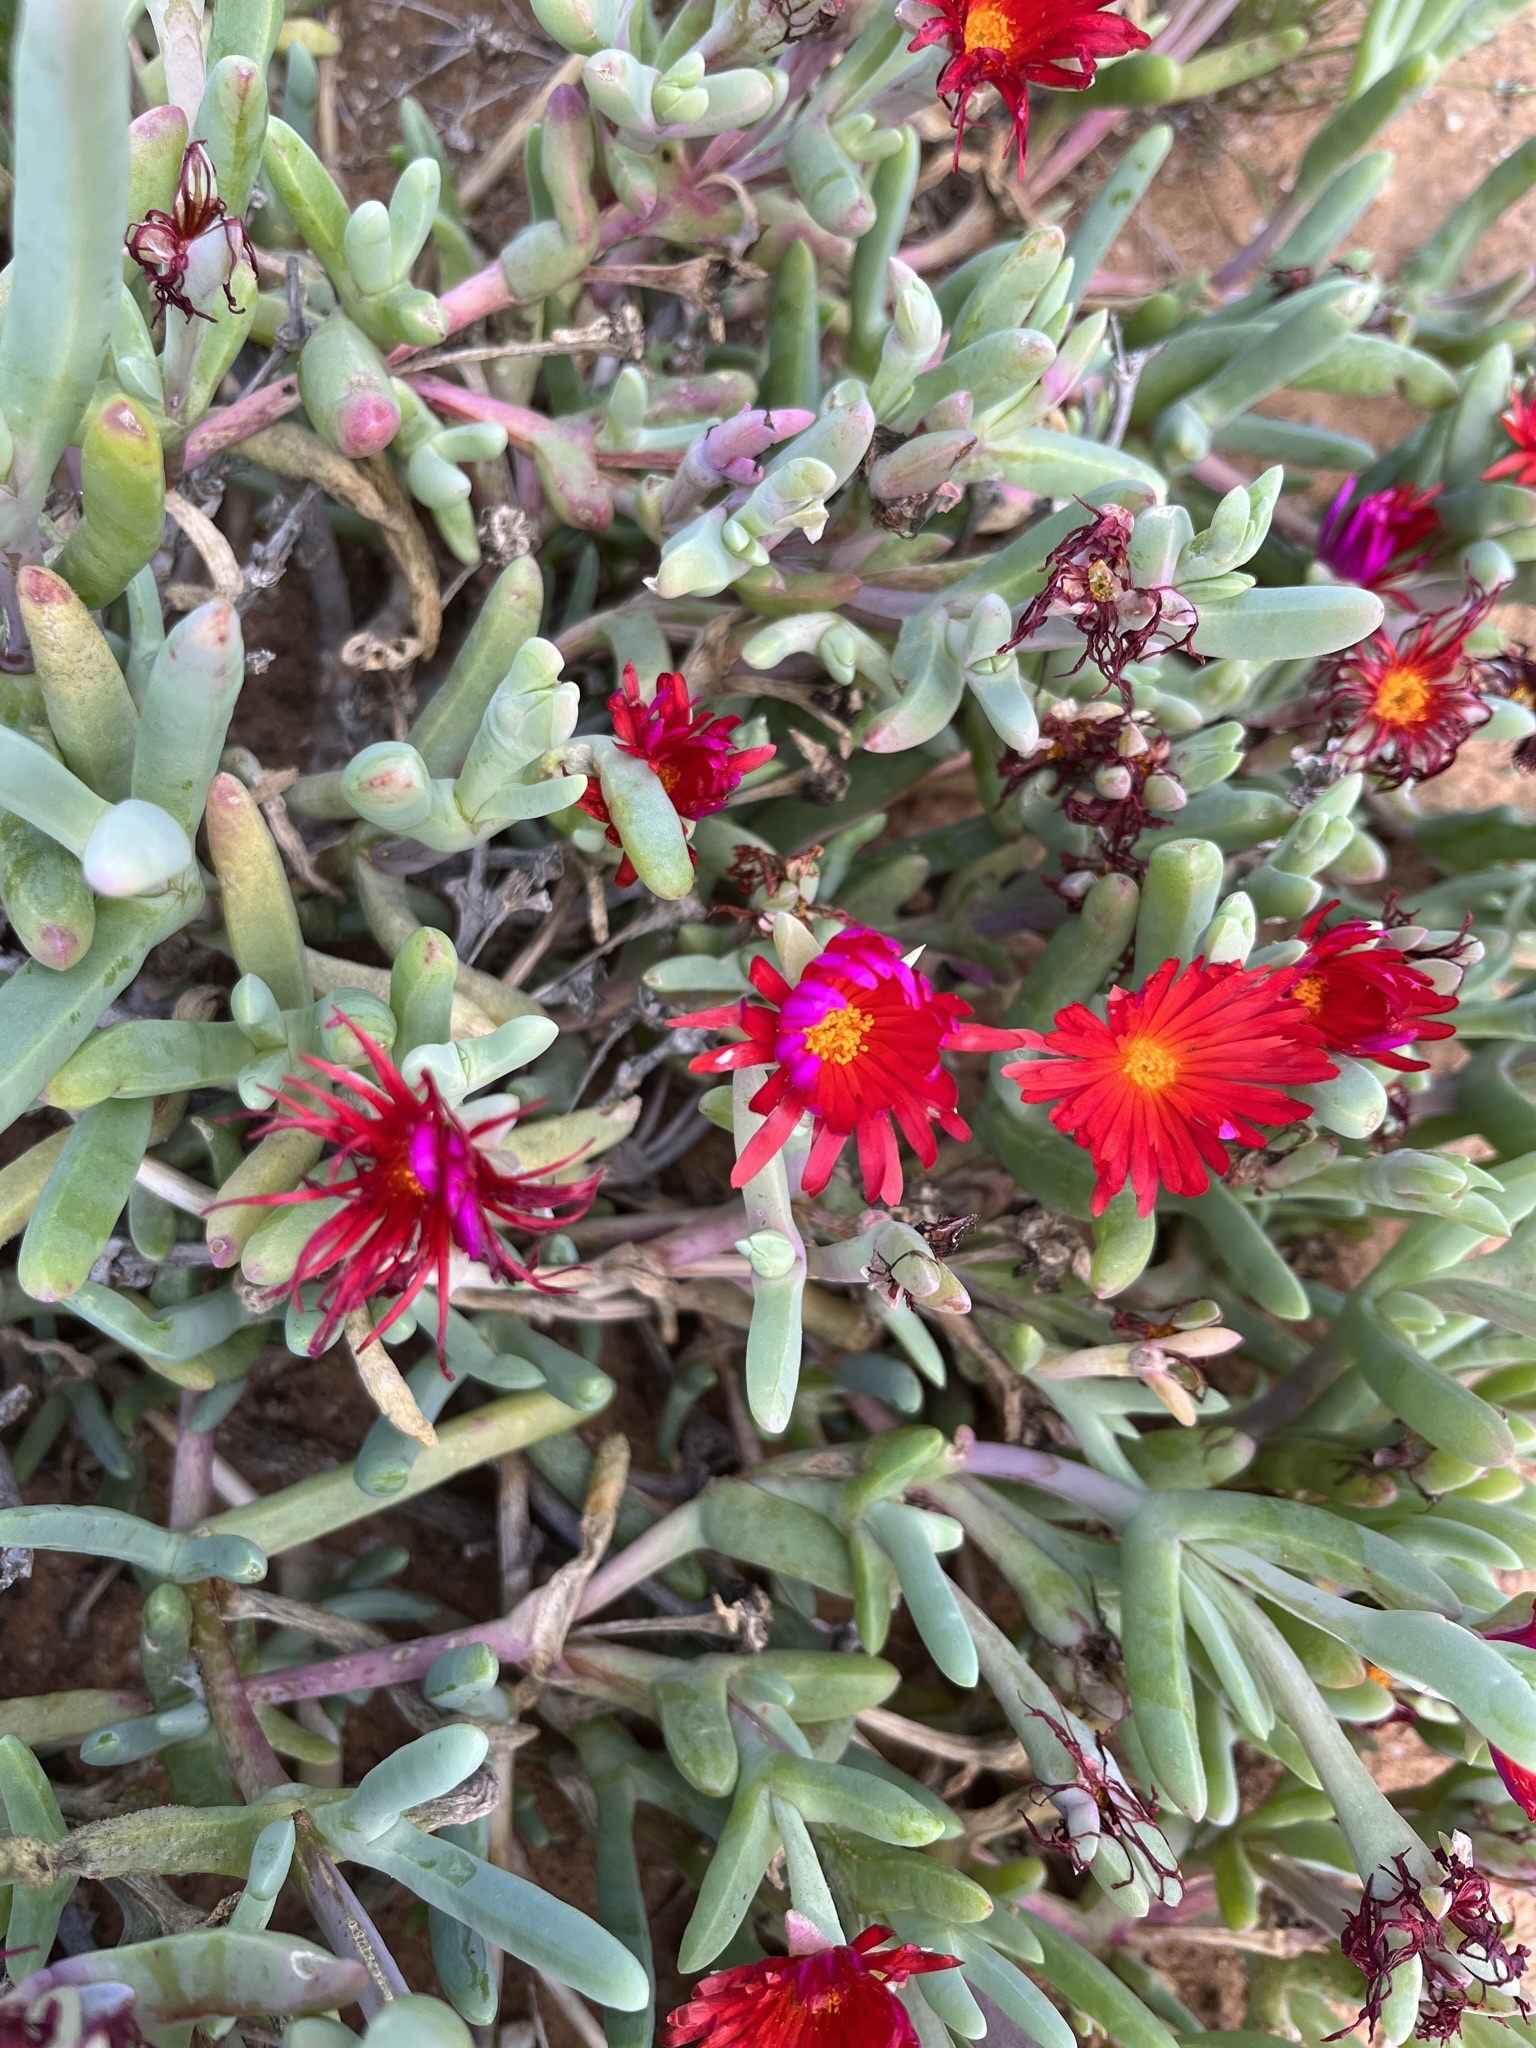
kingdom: Plantae
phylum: Tracheophyta
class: Magnoliopsida
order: Caryophyllales
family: Aizoaceae
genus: Malephora
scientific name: Malephora purpureocrocea
